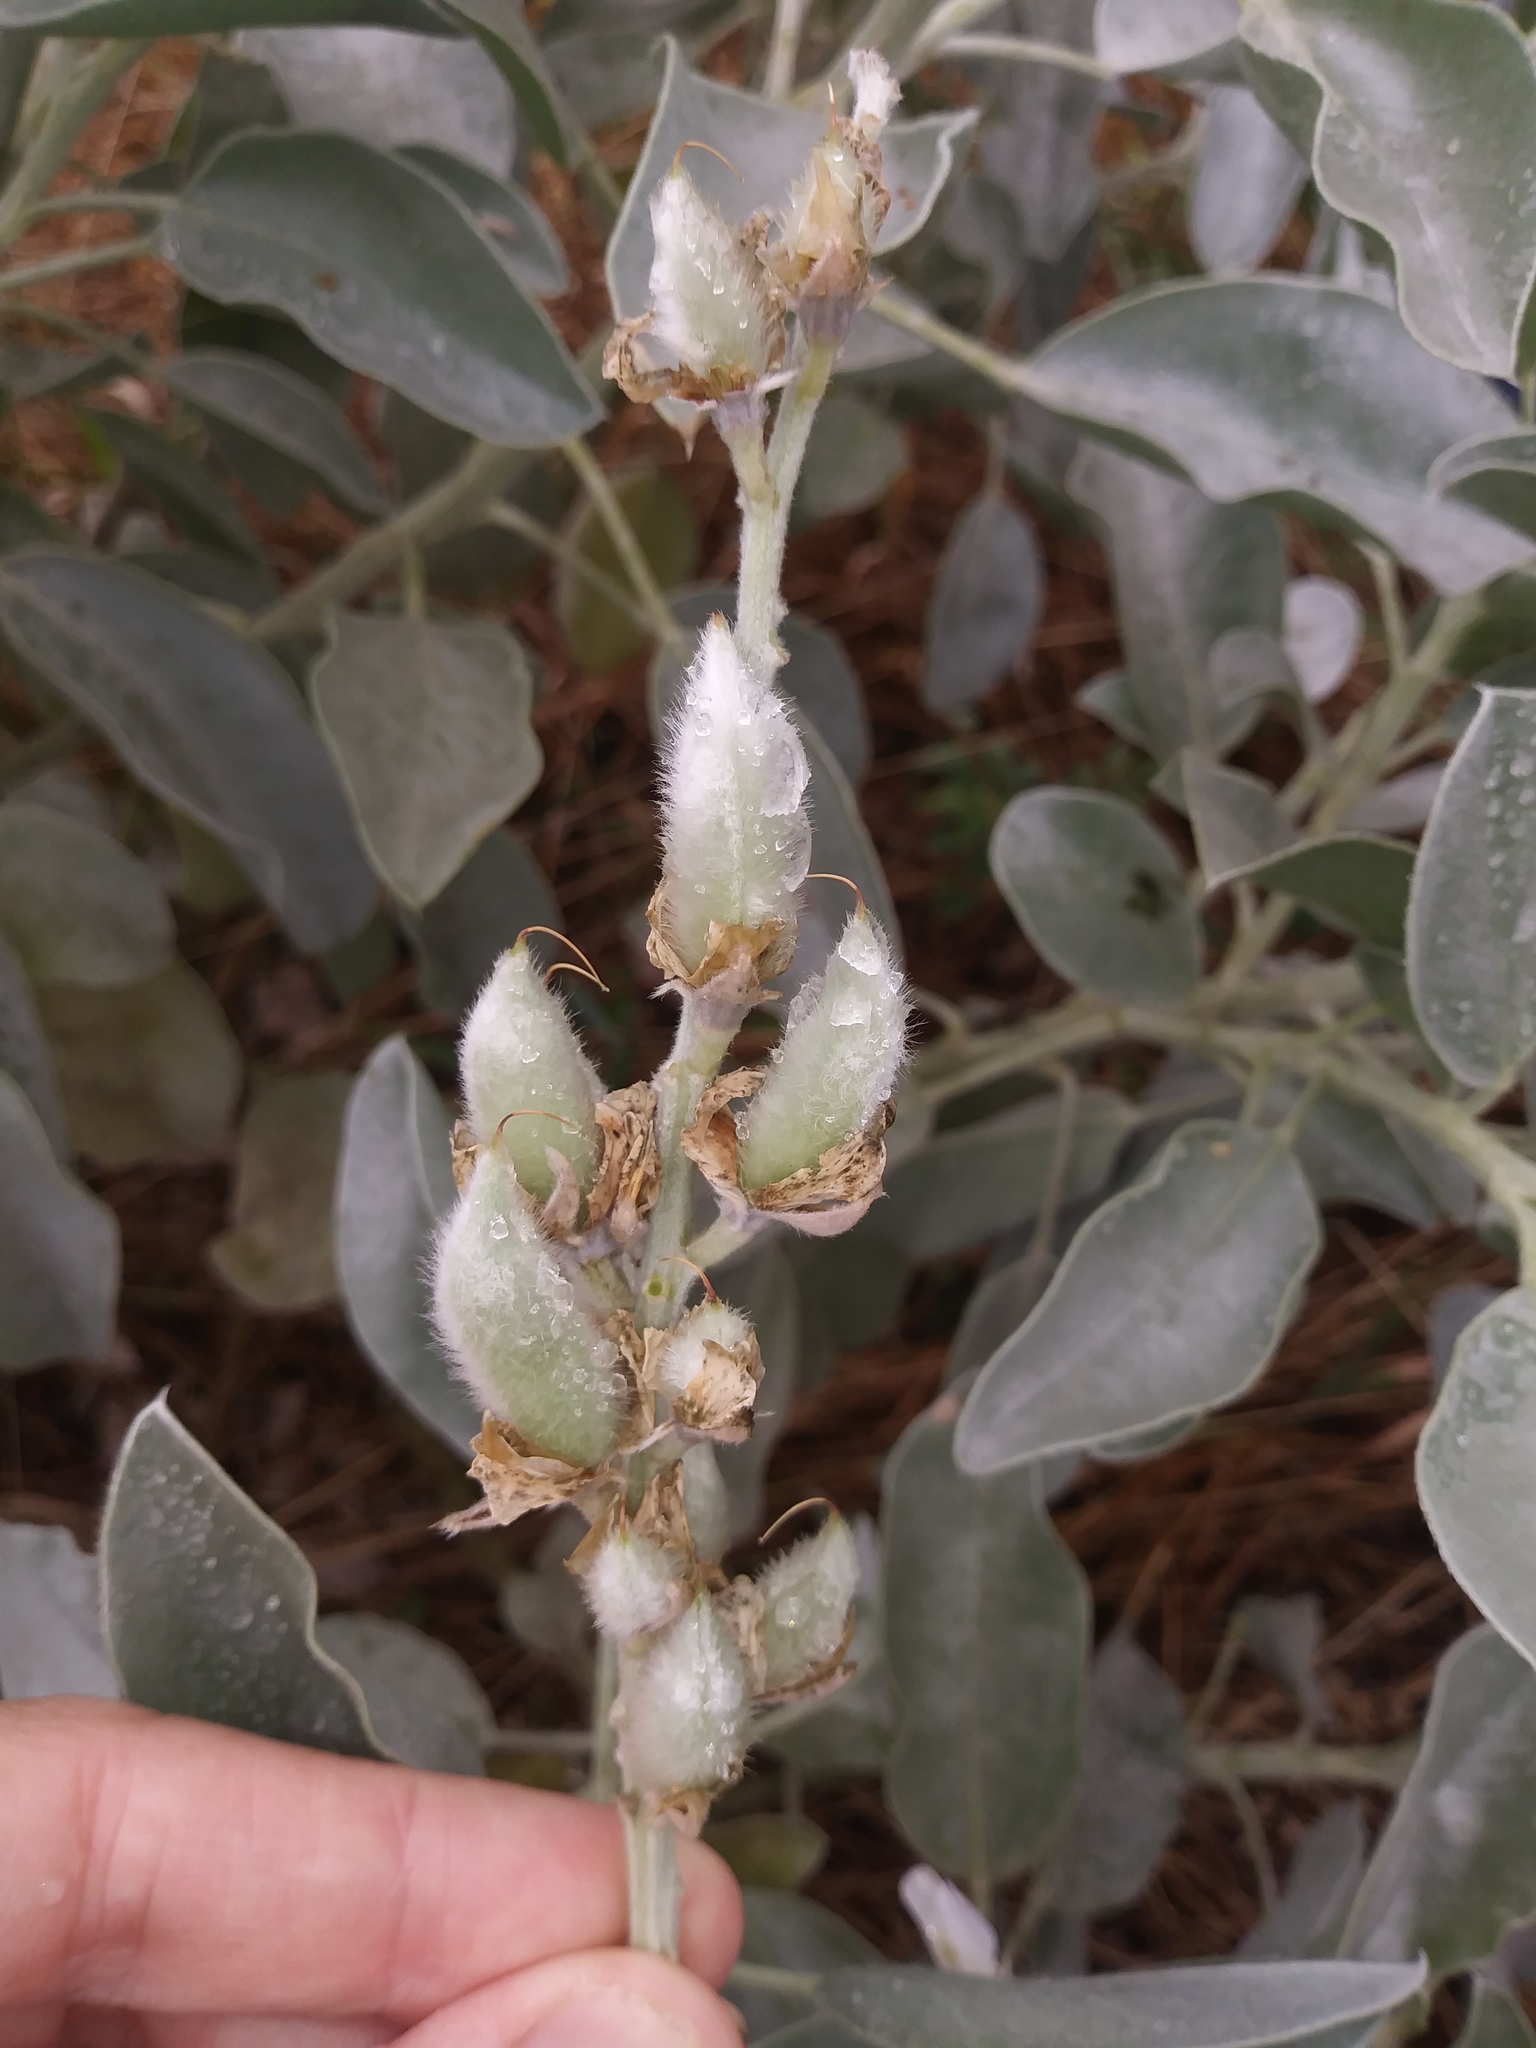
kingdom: Plantae
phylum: Tracheophyta
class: Magnoliopsida
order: Fabales
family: Fabaceae
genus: Lupinus
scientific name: Lupinus cumulicola
